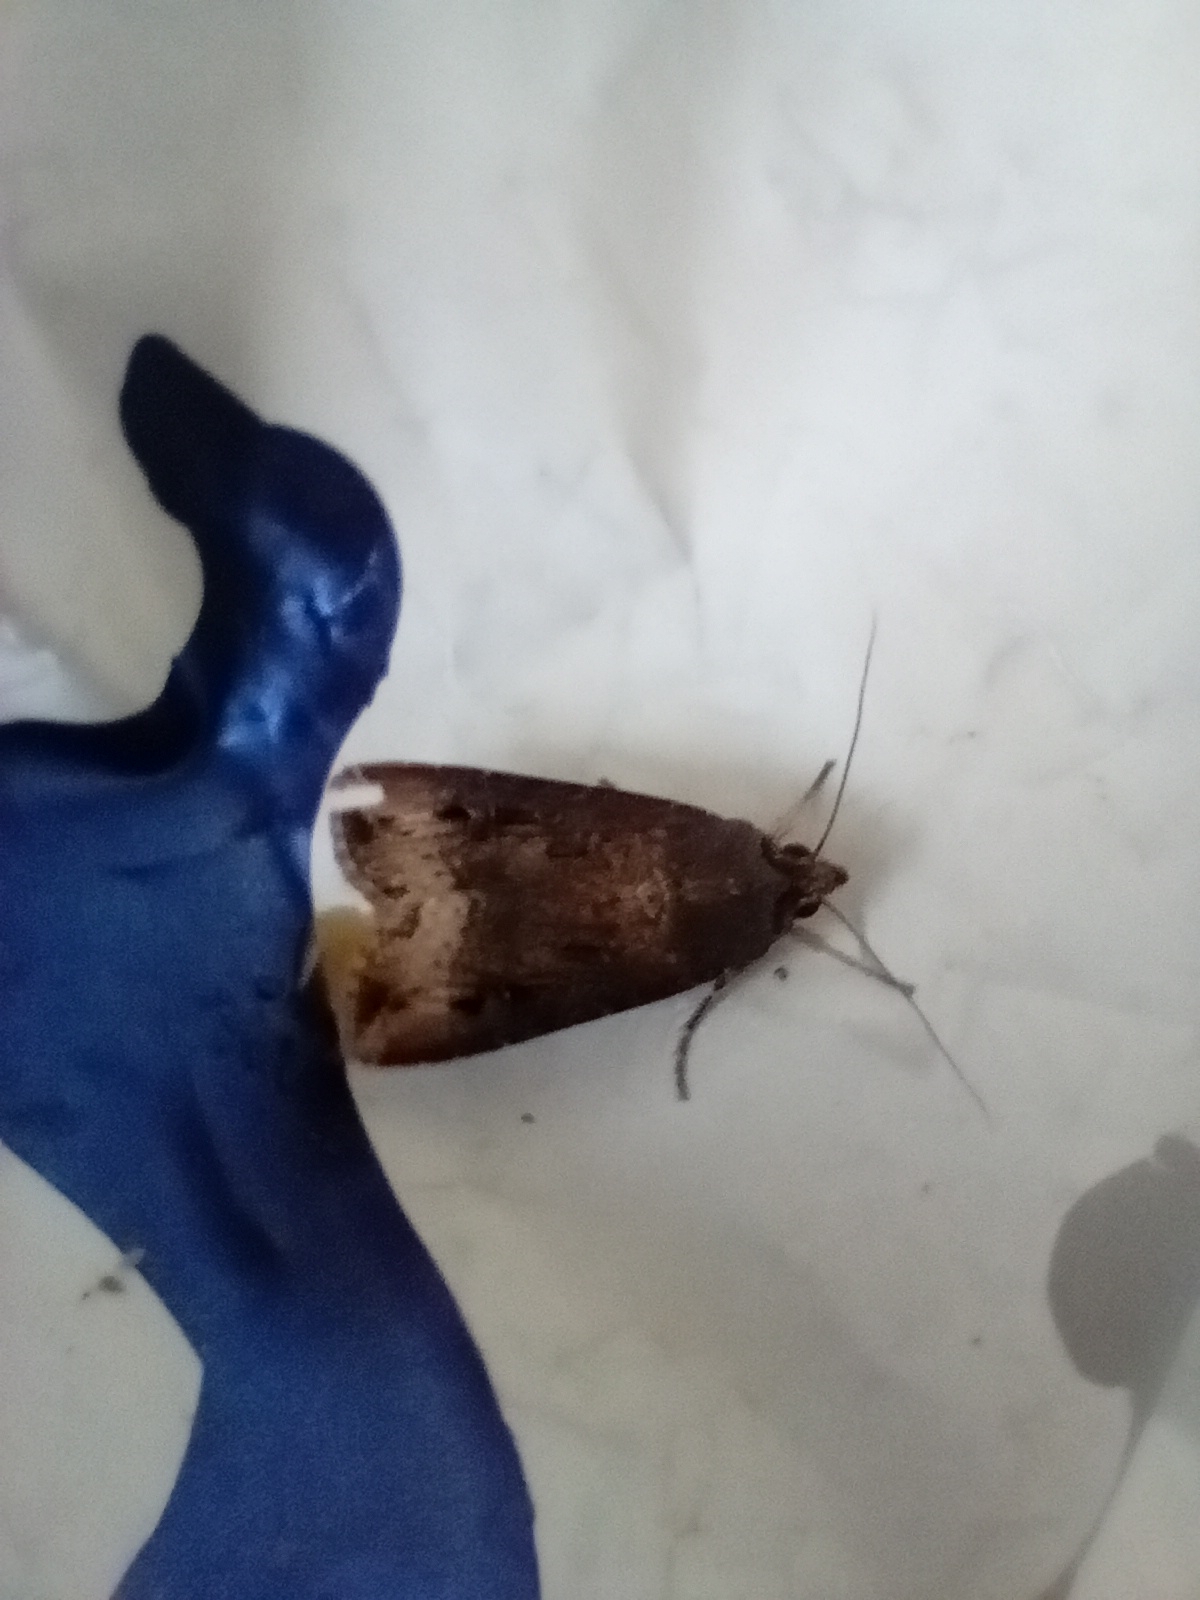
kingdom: Animalia
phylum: Arthropoda
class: Insecta
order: Lepidoptera
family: Noctuidae
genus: Agrotis
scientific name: Agrotis ipsilon
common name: Dark sword-grass
